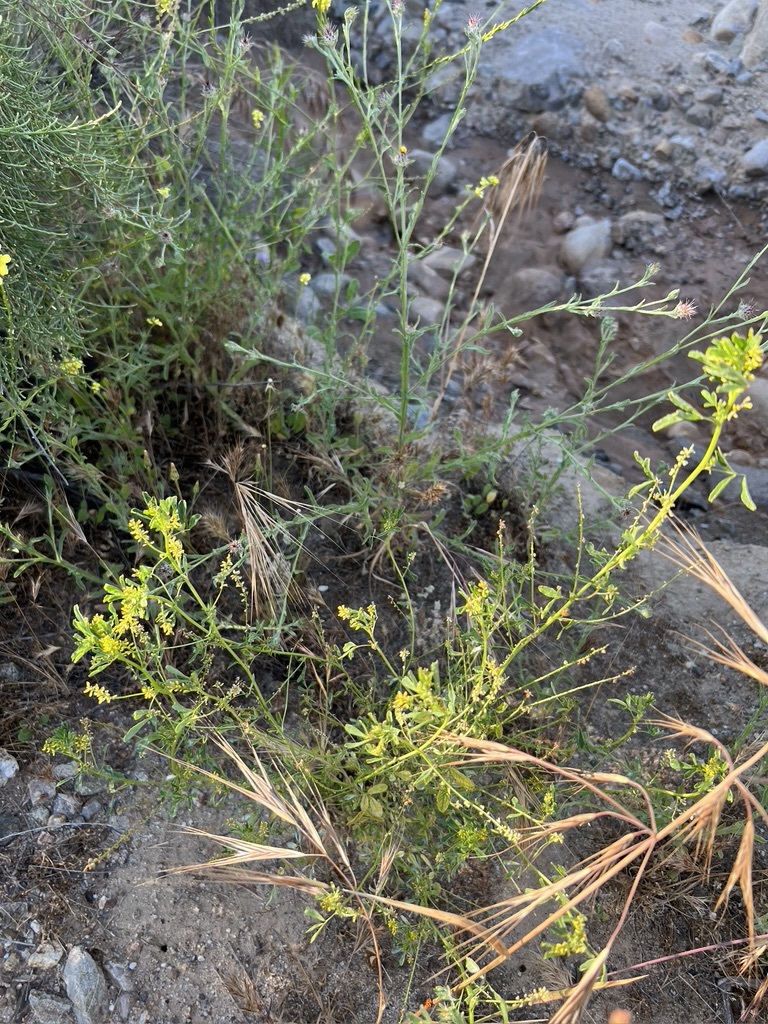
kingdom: Plantae
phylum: Tracheophyta
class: Magnoliopsida
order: Fabales
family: Fabaceae
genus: Melilotus
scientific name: Melilotus indicus
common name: Small melilot
